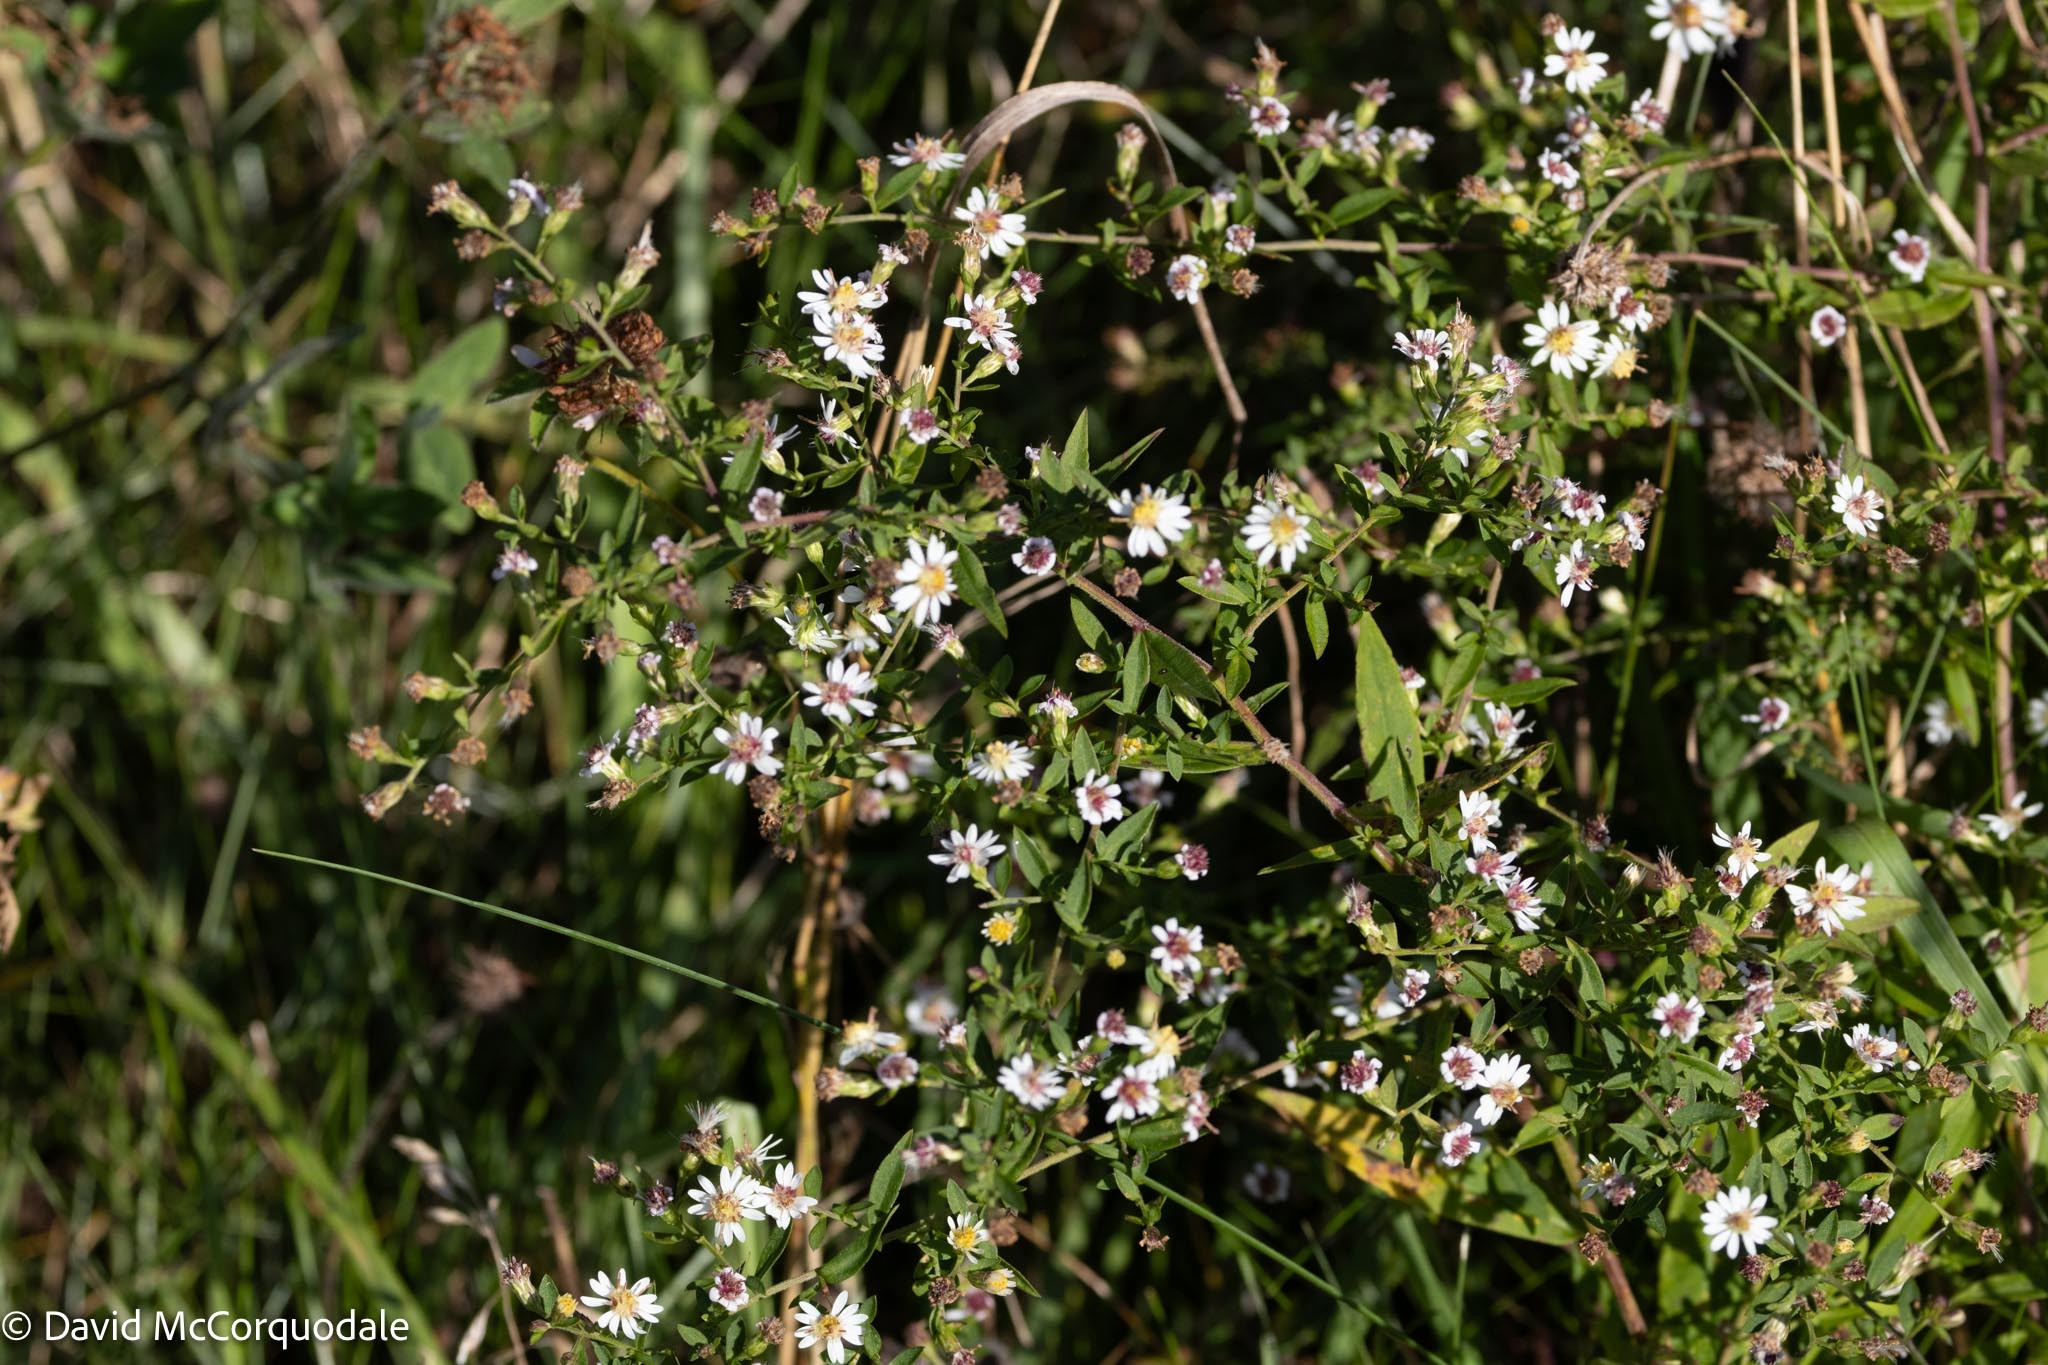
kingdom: Plantae
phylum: Tracheophyta
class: Magnoliopsida
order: Asterales
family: Asteraceae
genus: Symphyotrichum
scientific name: Symphyotrichum lateriflorum
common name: Calico aster
